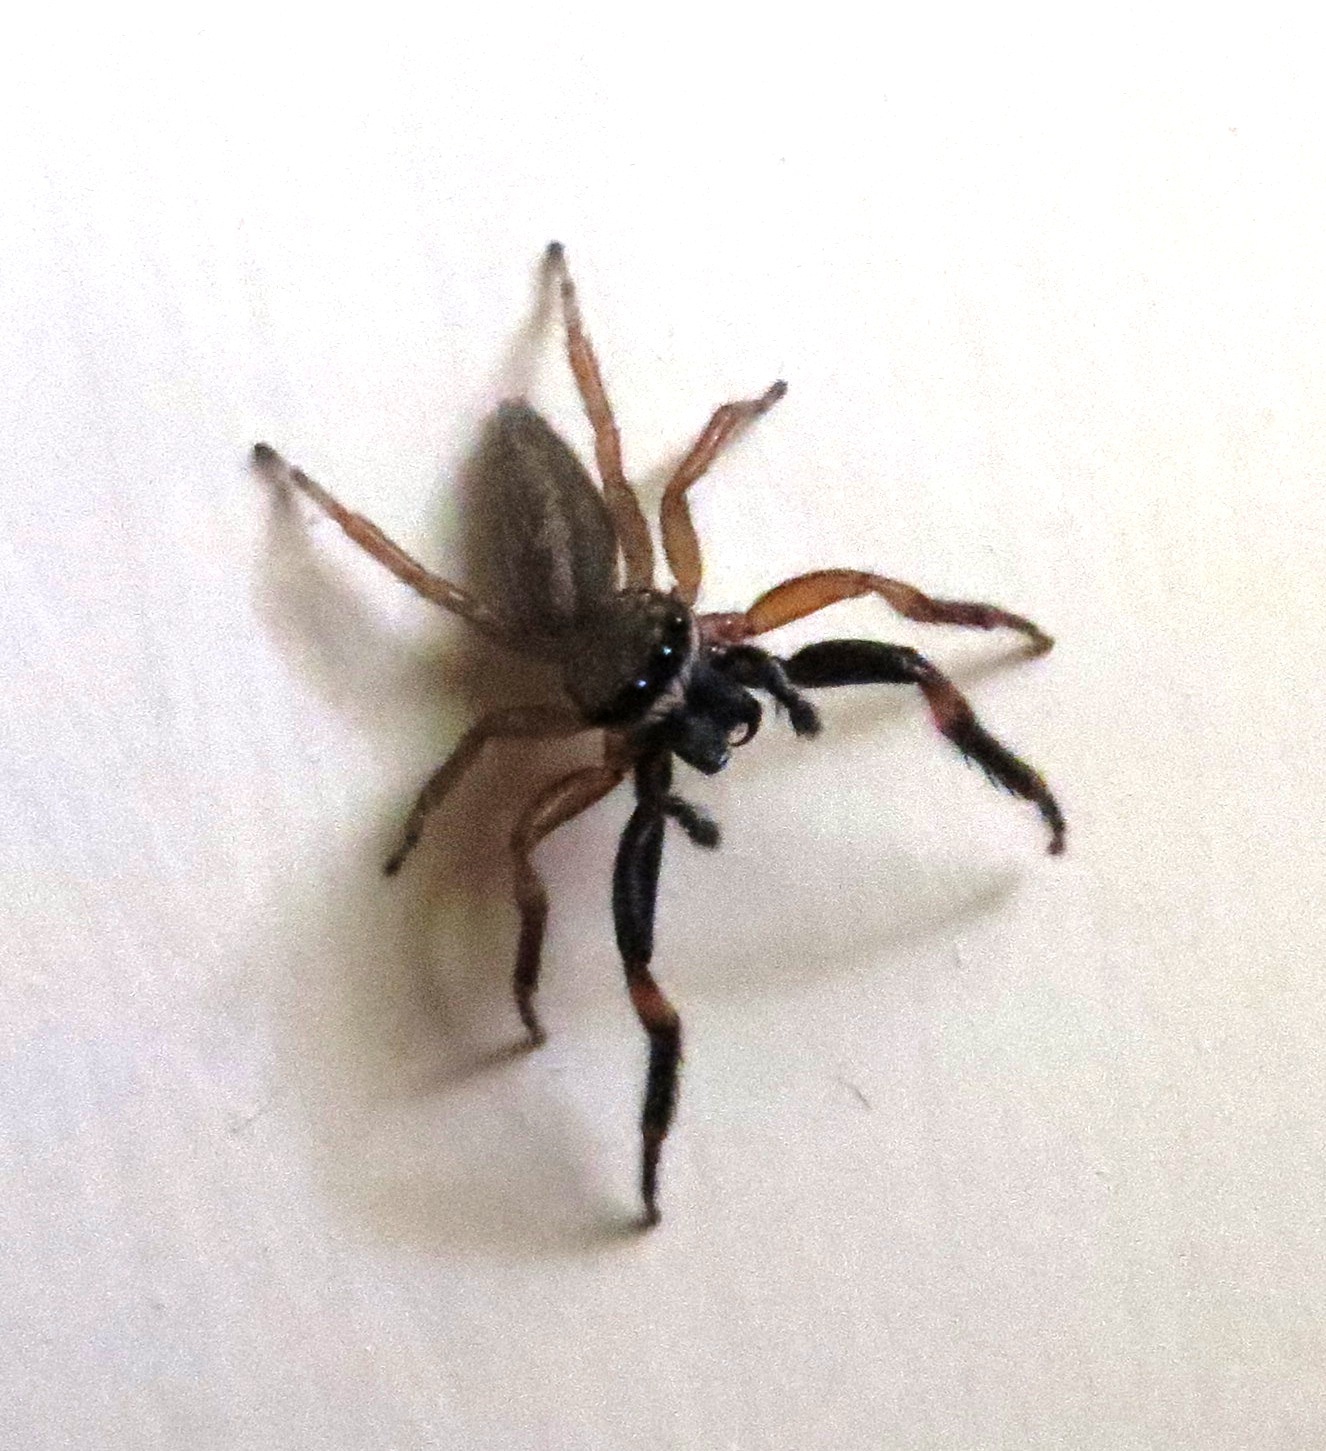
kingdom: Animalia
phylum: Arthropoda
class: Arachnida
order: Araneae
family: Salticidae
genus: Trite
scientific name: Trite auricoma
